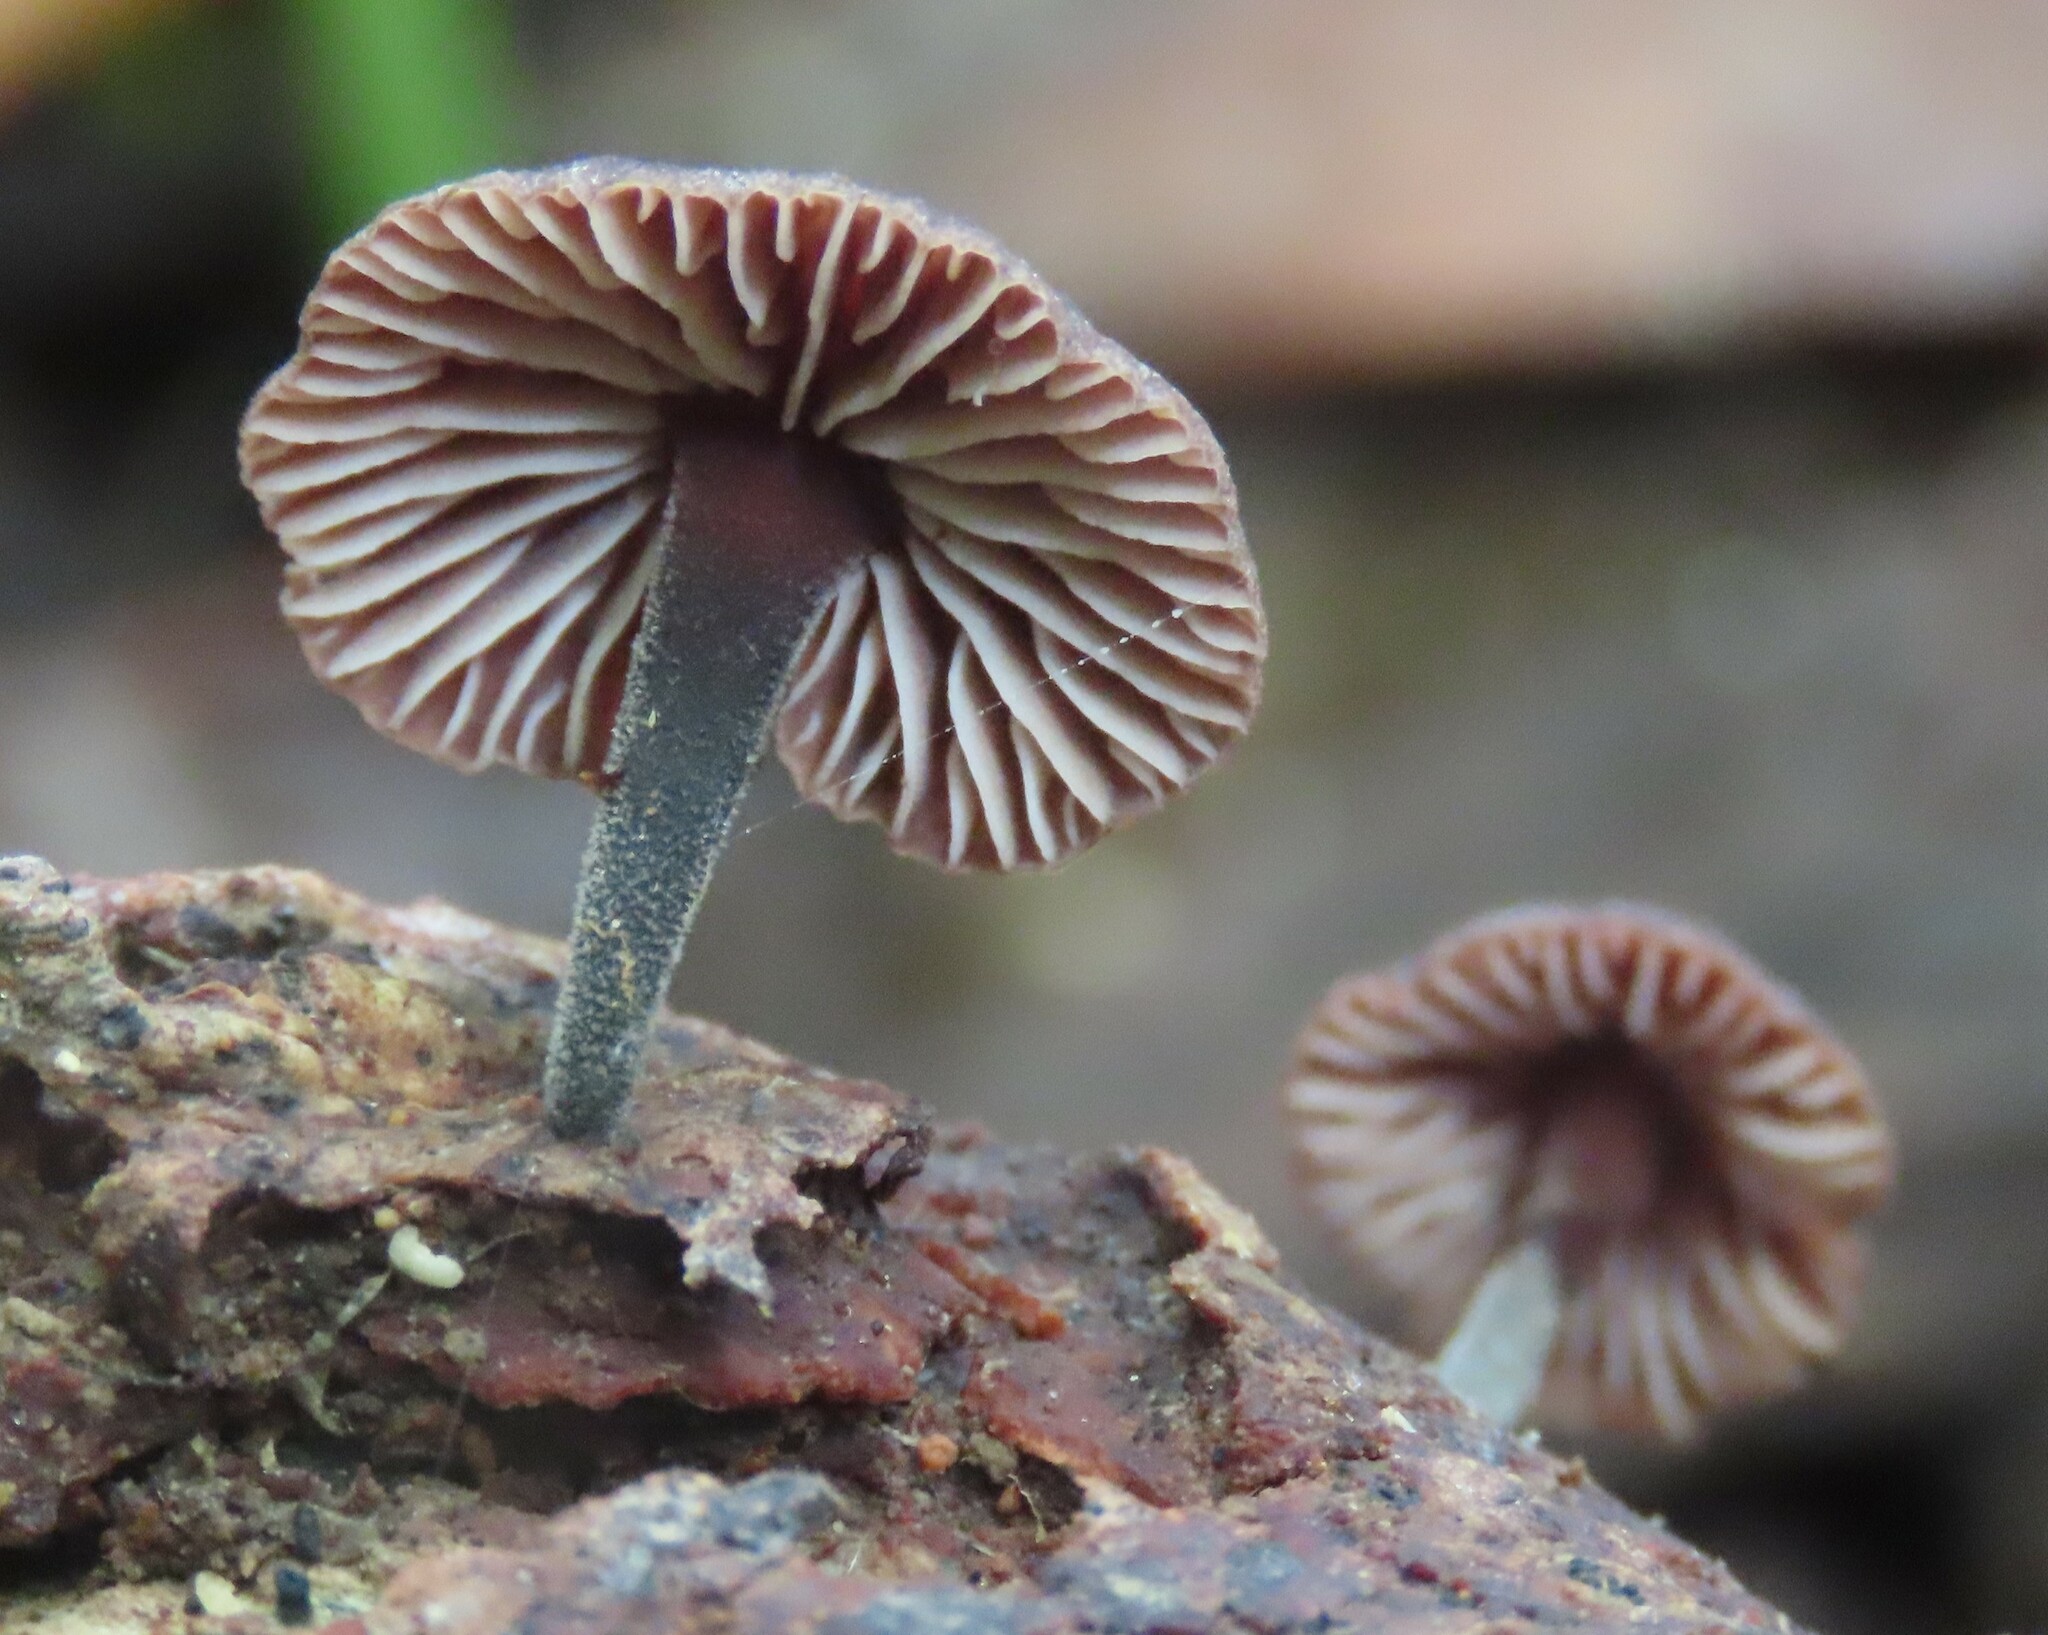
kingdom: Fungi
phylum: Basidiomycota
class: Agaricomycetes
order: Agaricales
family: Omphalotaceae
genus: Gymnopus
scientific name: Gymnopus ceraceicola
